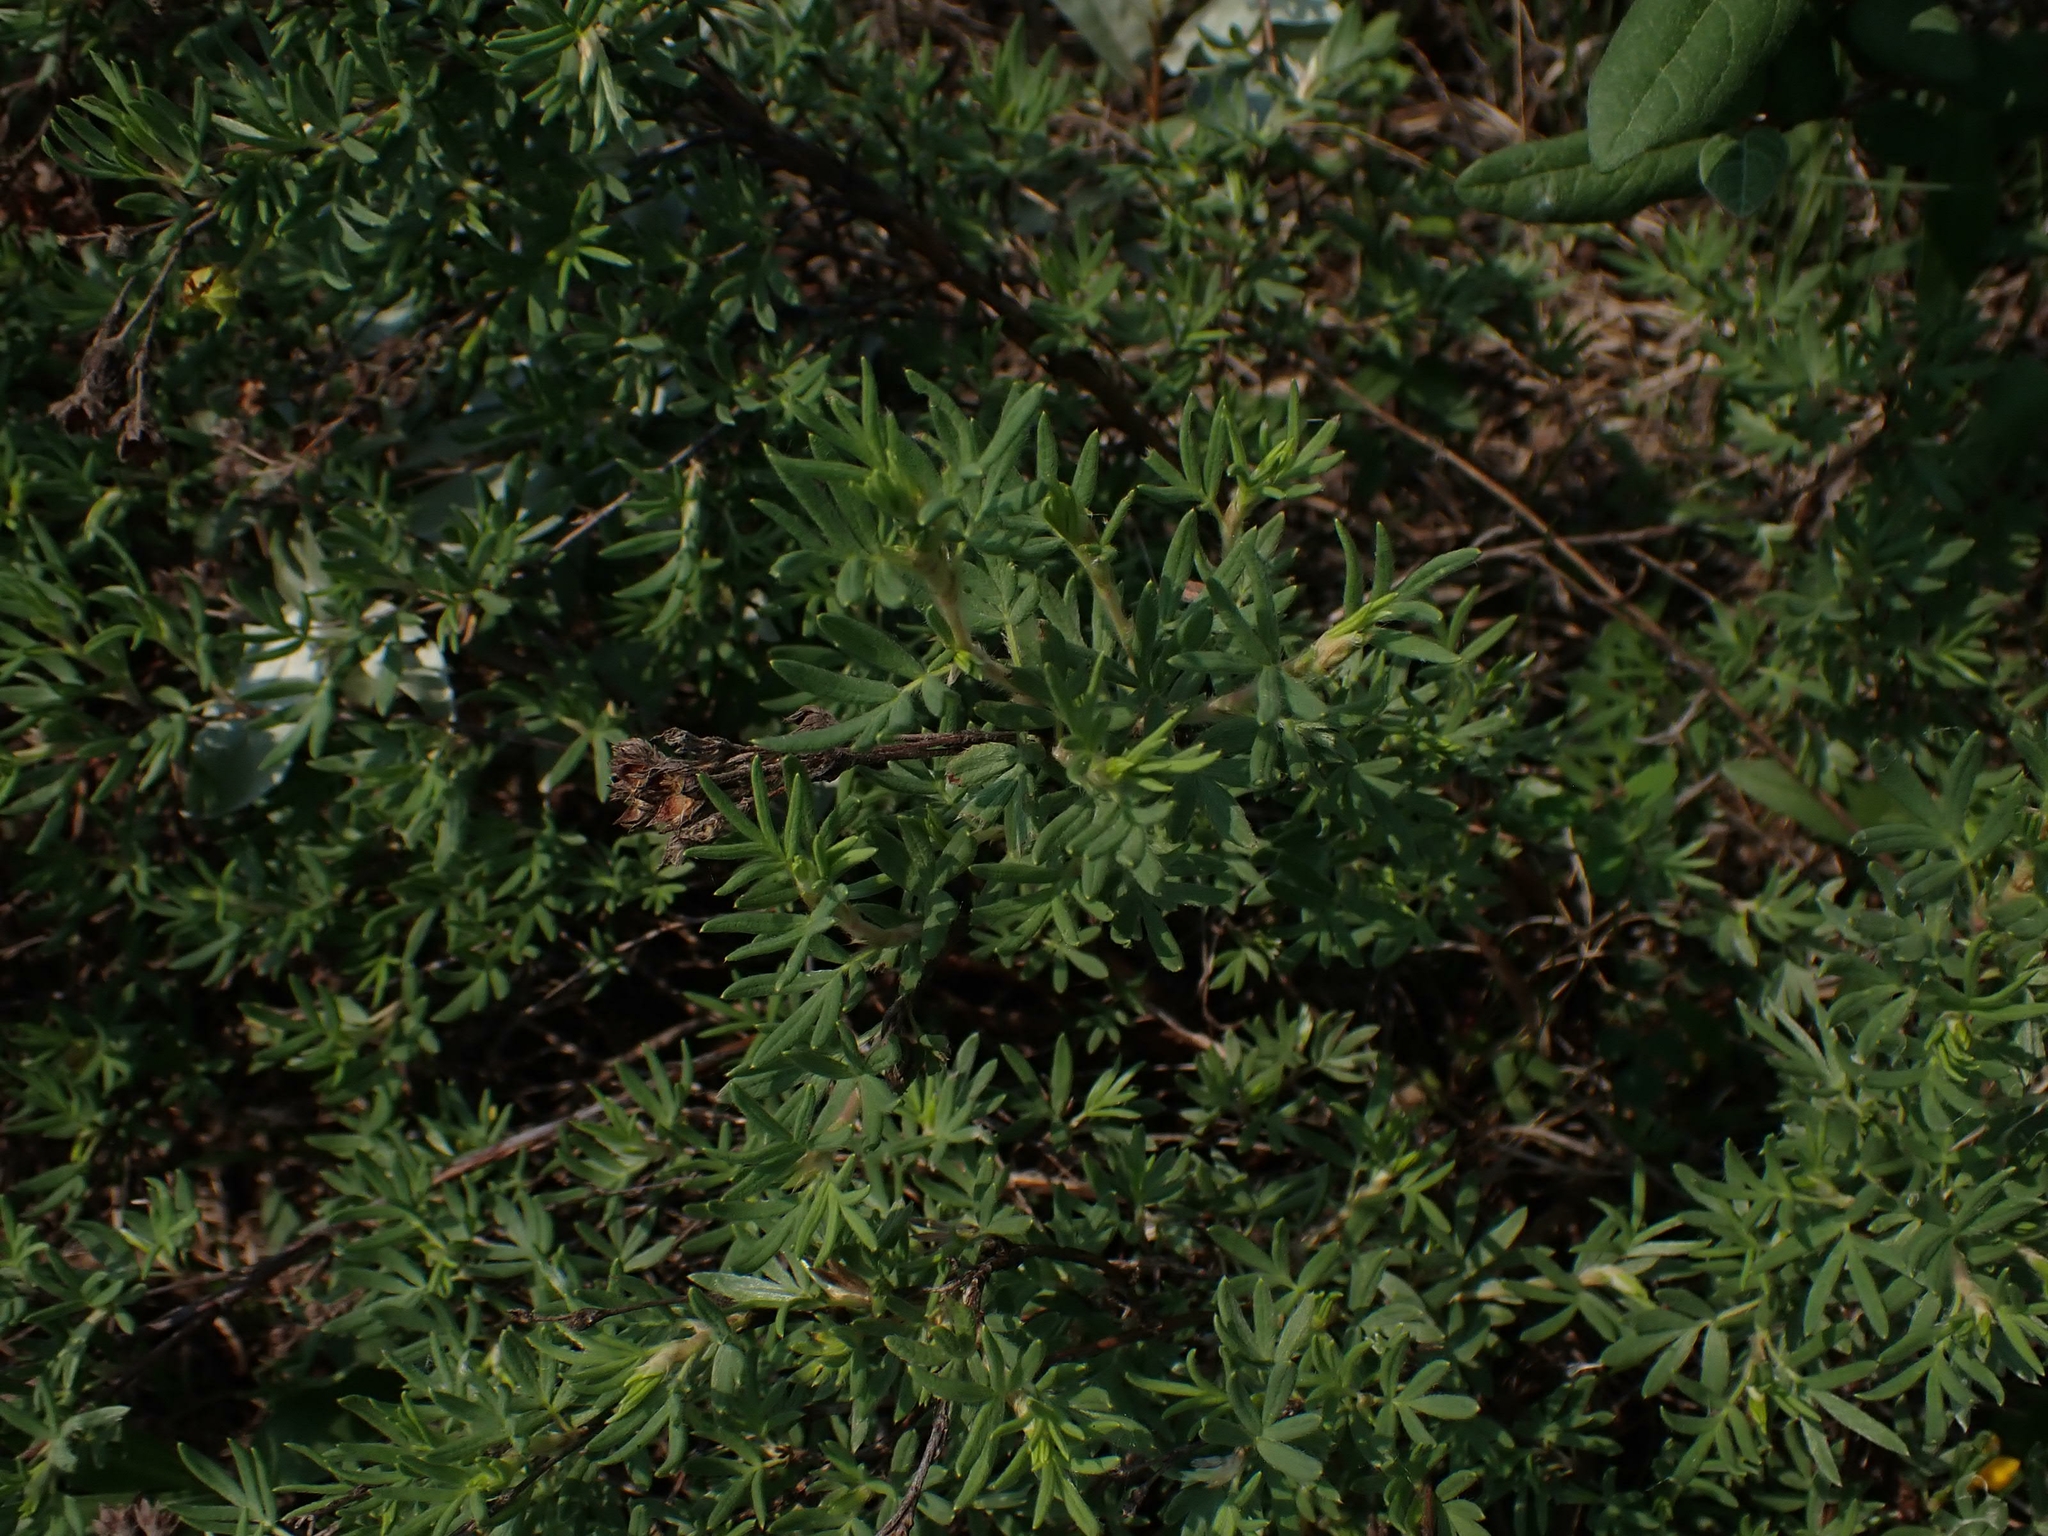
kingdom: Plantae
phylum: Tracheophyta
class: Magnoliopsida
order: Rosales
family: Rosaceae
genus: Dasiphora
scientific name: Dasiphora fruticosa
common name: Shrubby cinquefoil
